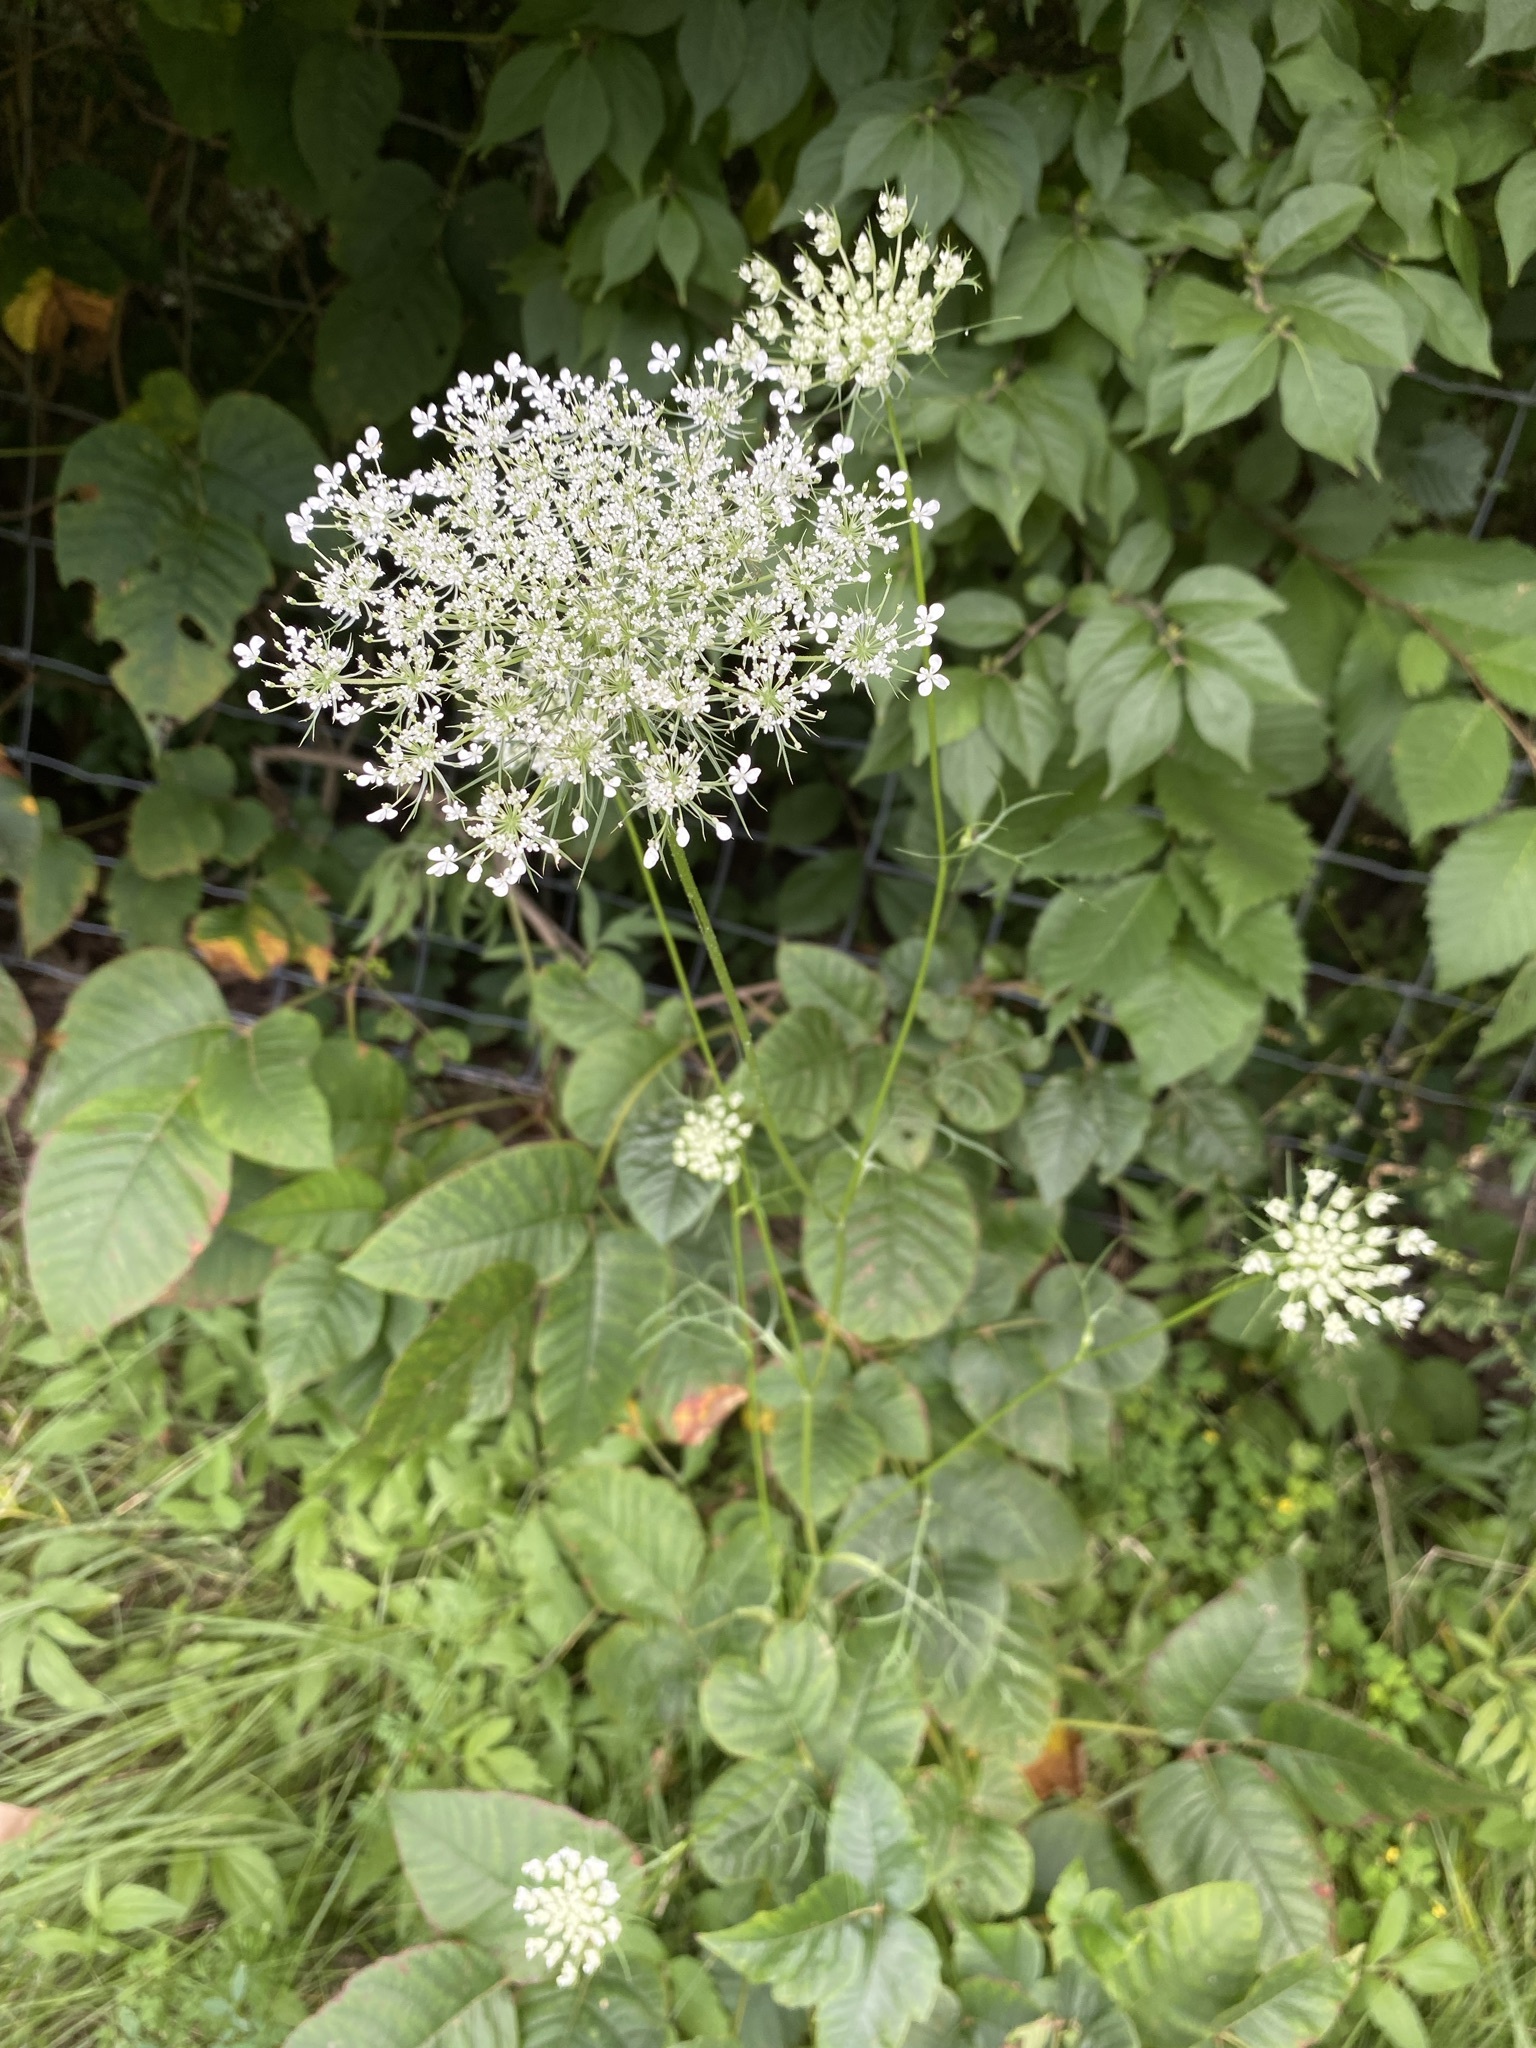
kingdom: Plantae
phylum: Tracheophyta
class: Magnoliopsida
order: Apiales
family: Apiaceae
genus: Daucus
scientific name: Daucus carota
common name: Wild carrot
